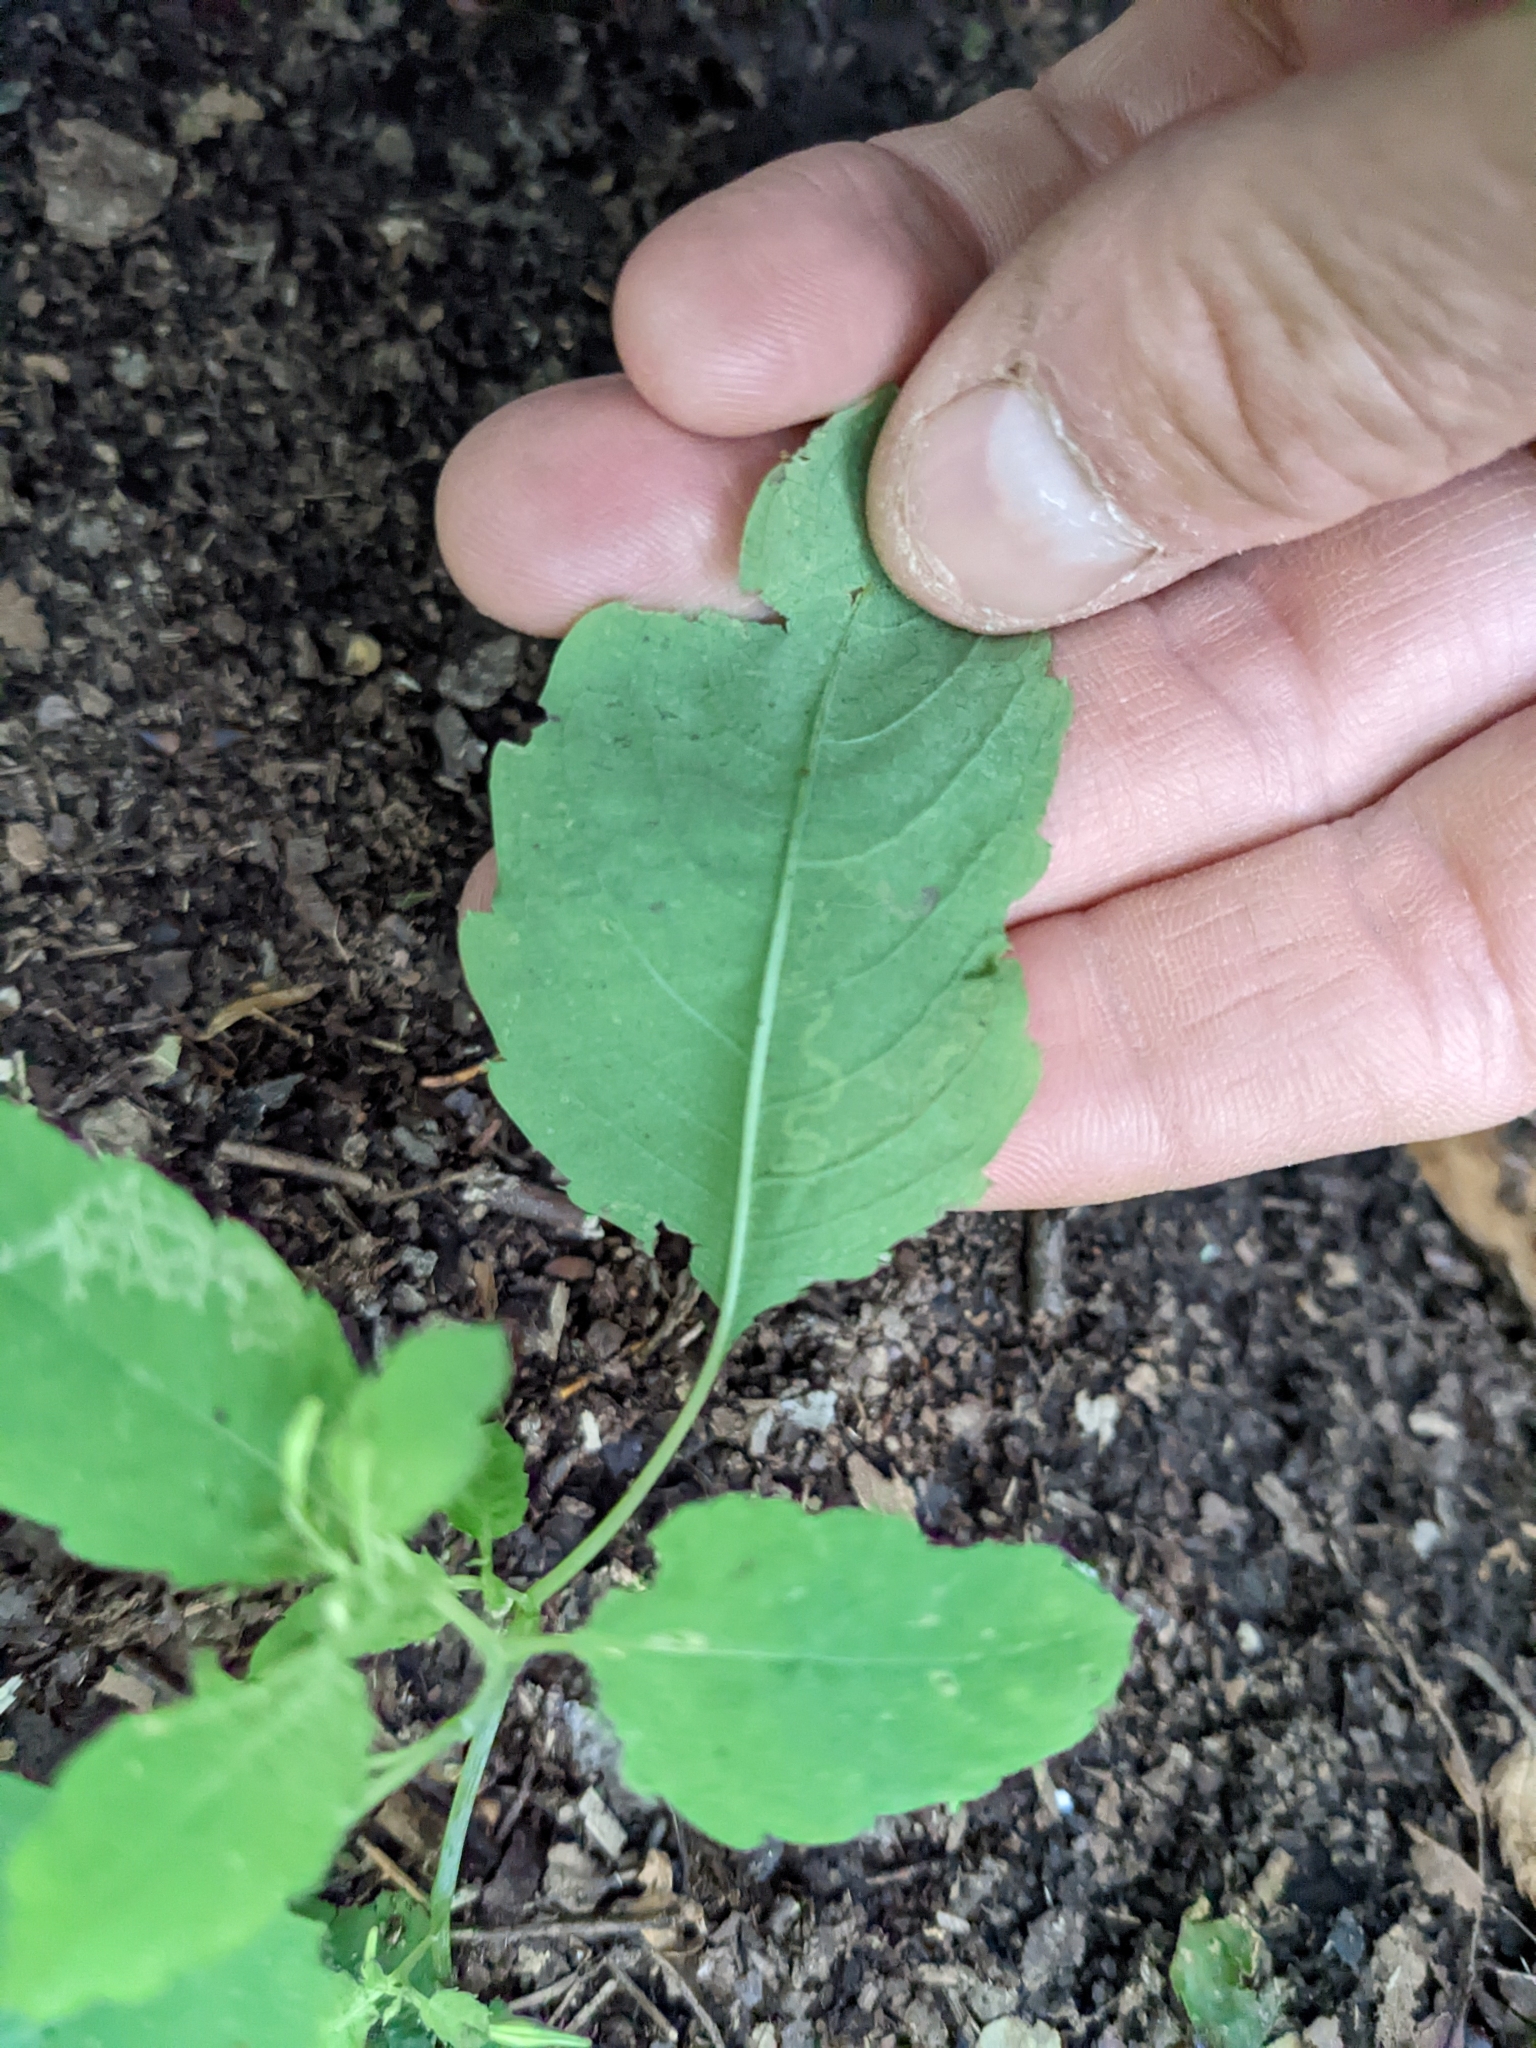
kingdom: Animalia
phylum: Arthropoda
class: Insecta
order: Diptera
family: Agromyzidae
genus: Phytoliriomyza
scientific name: Phytoliriomyza melampyga
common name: Jewelweed leaf-miner fly
